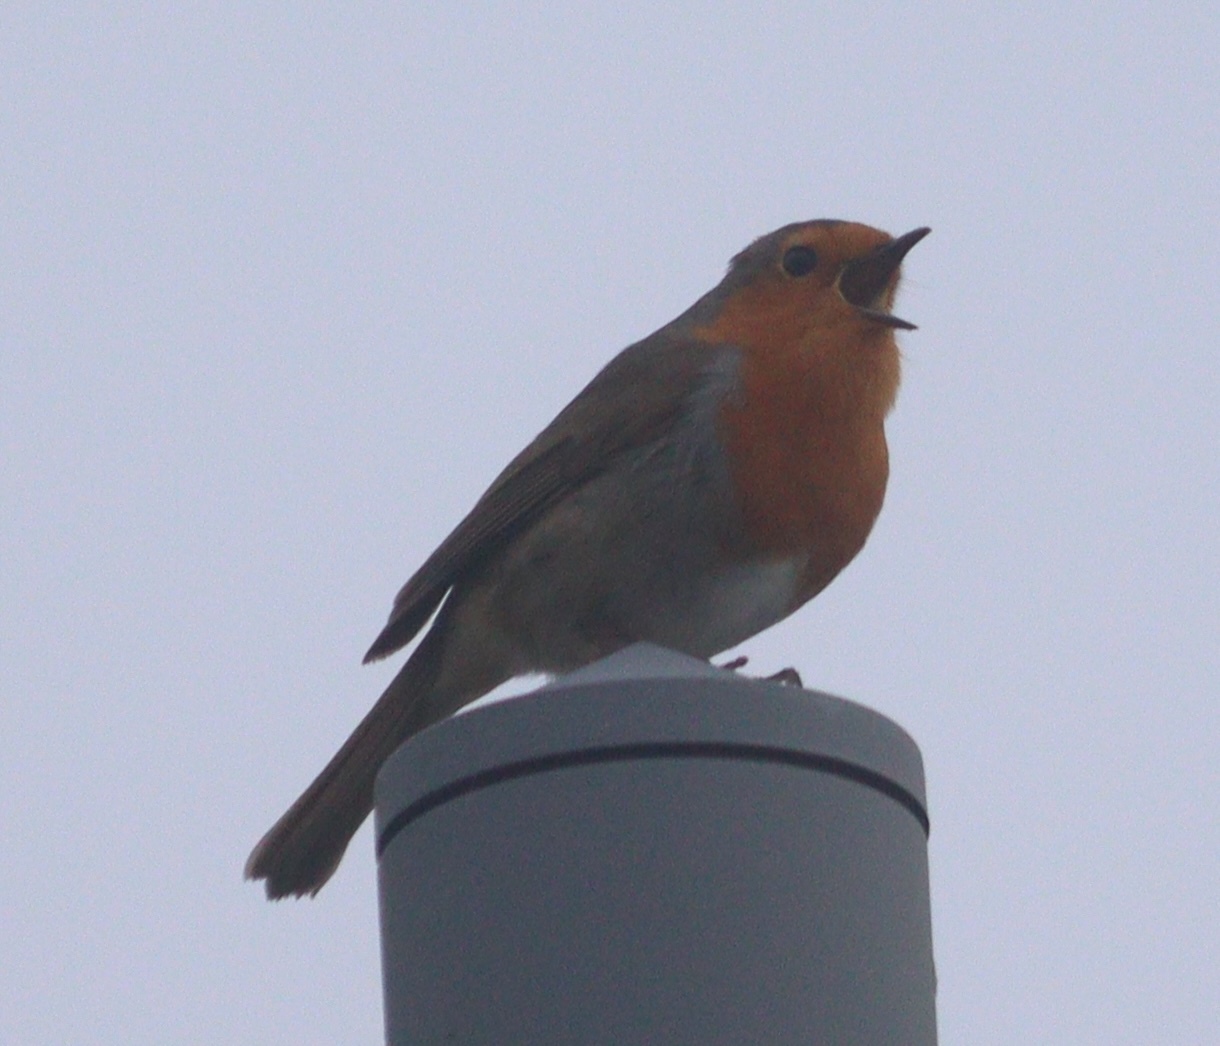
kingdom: Animalia
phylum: Chordata
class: Aves
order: Passeriformes
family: Muscicapidae
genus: Erithacus
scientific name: Erithacus rubecula
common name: European robin
